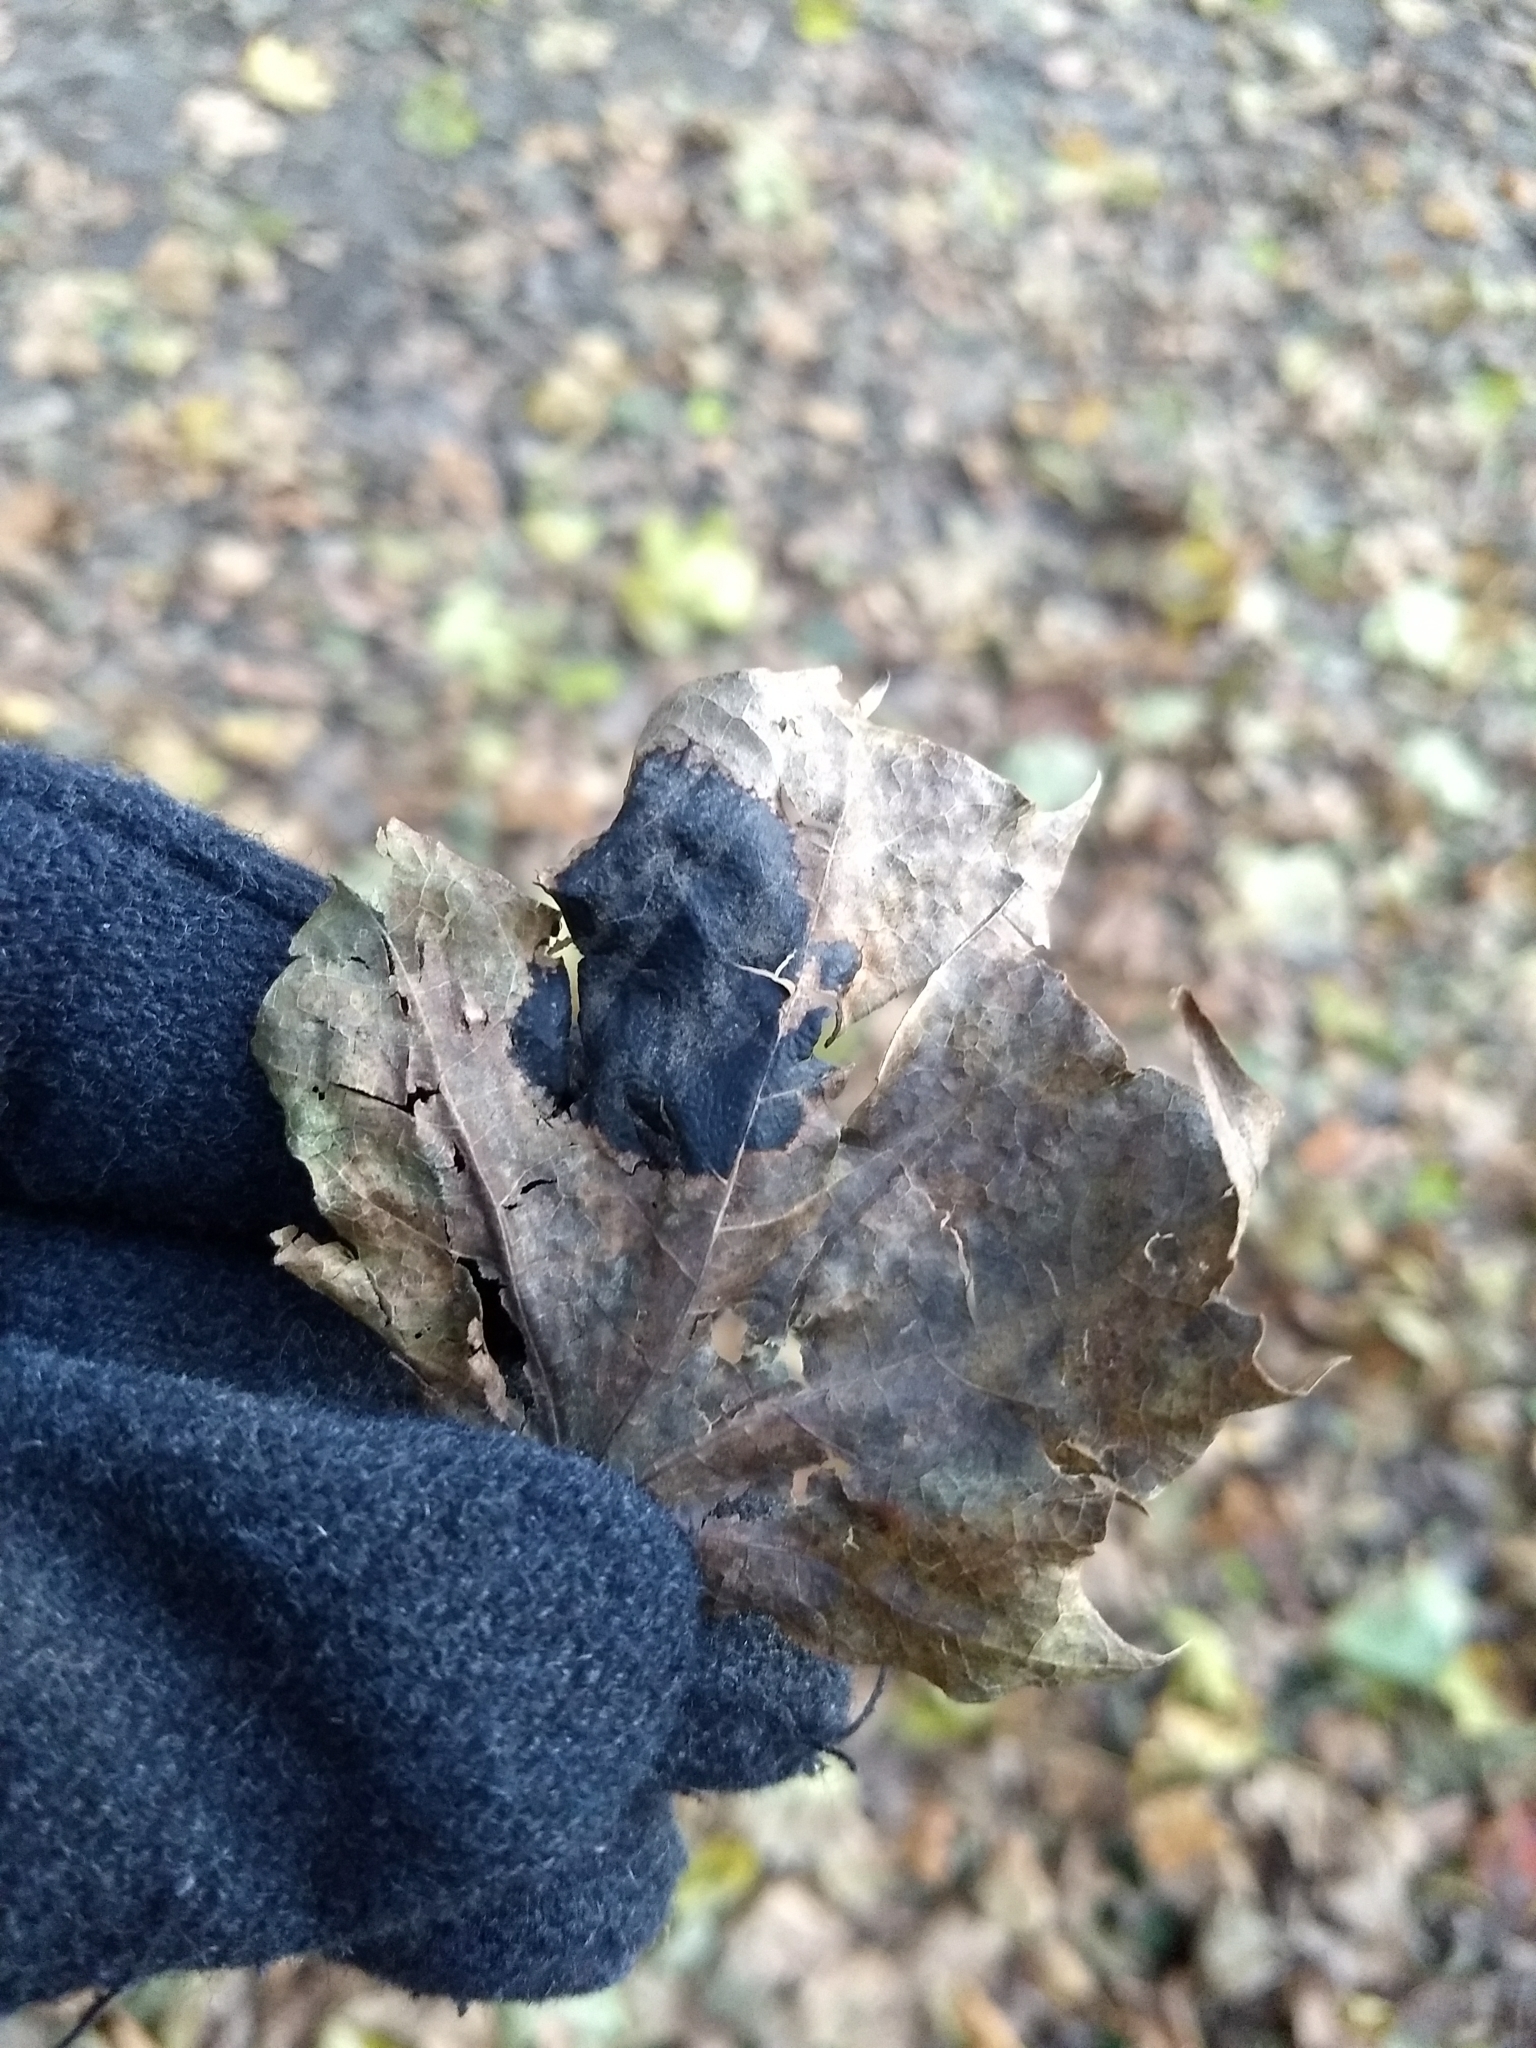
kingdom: Fungi
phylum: Ascomycota
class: Leotiomycetes
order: Rhytismatales
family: Rhytismataceae
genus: Rhytisma
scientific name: Rhytisma acerinum
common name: European tar spot
